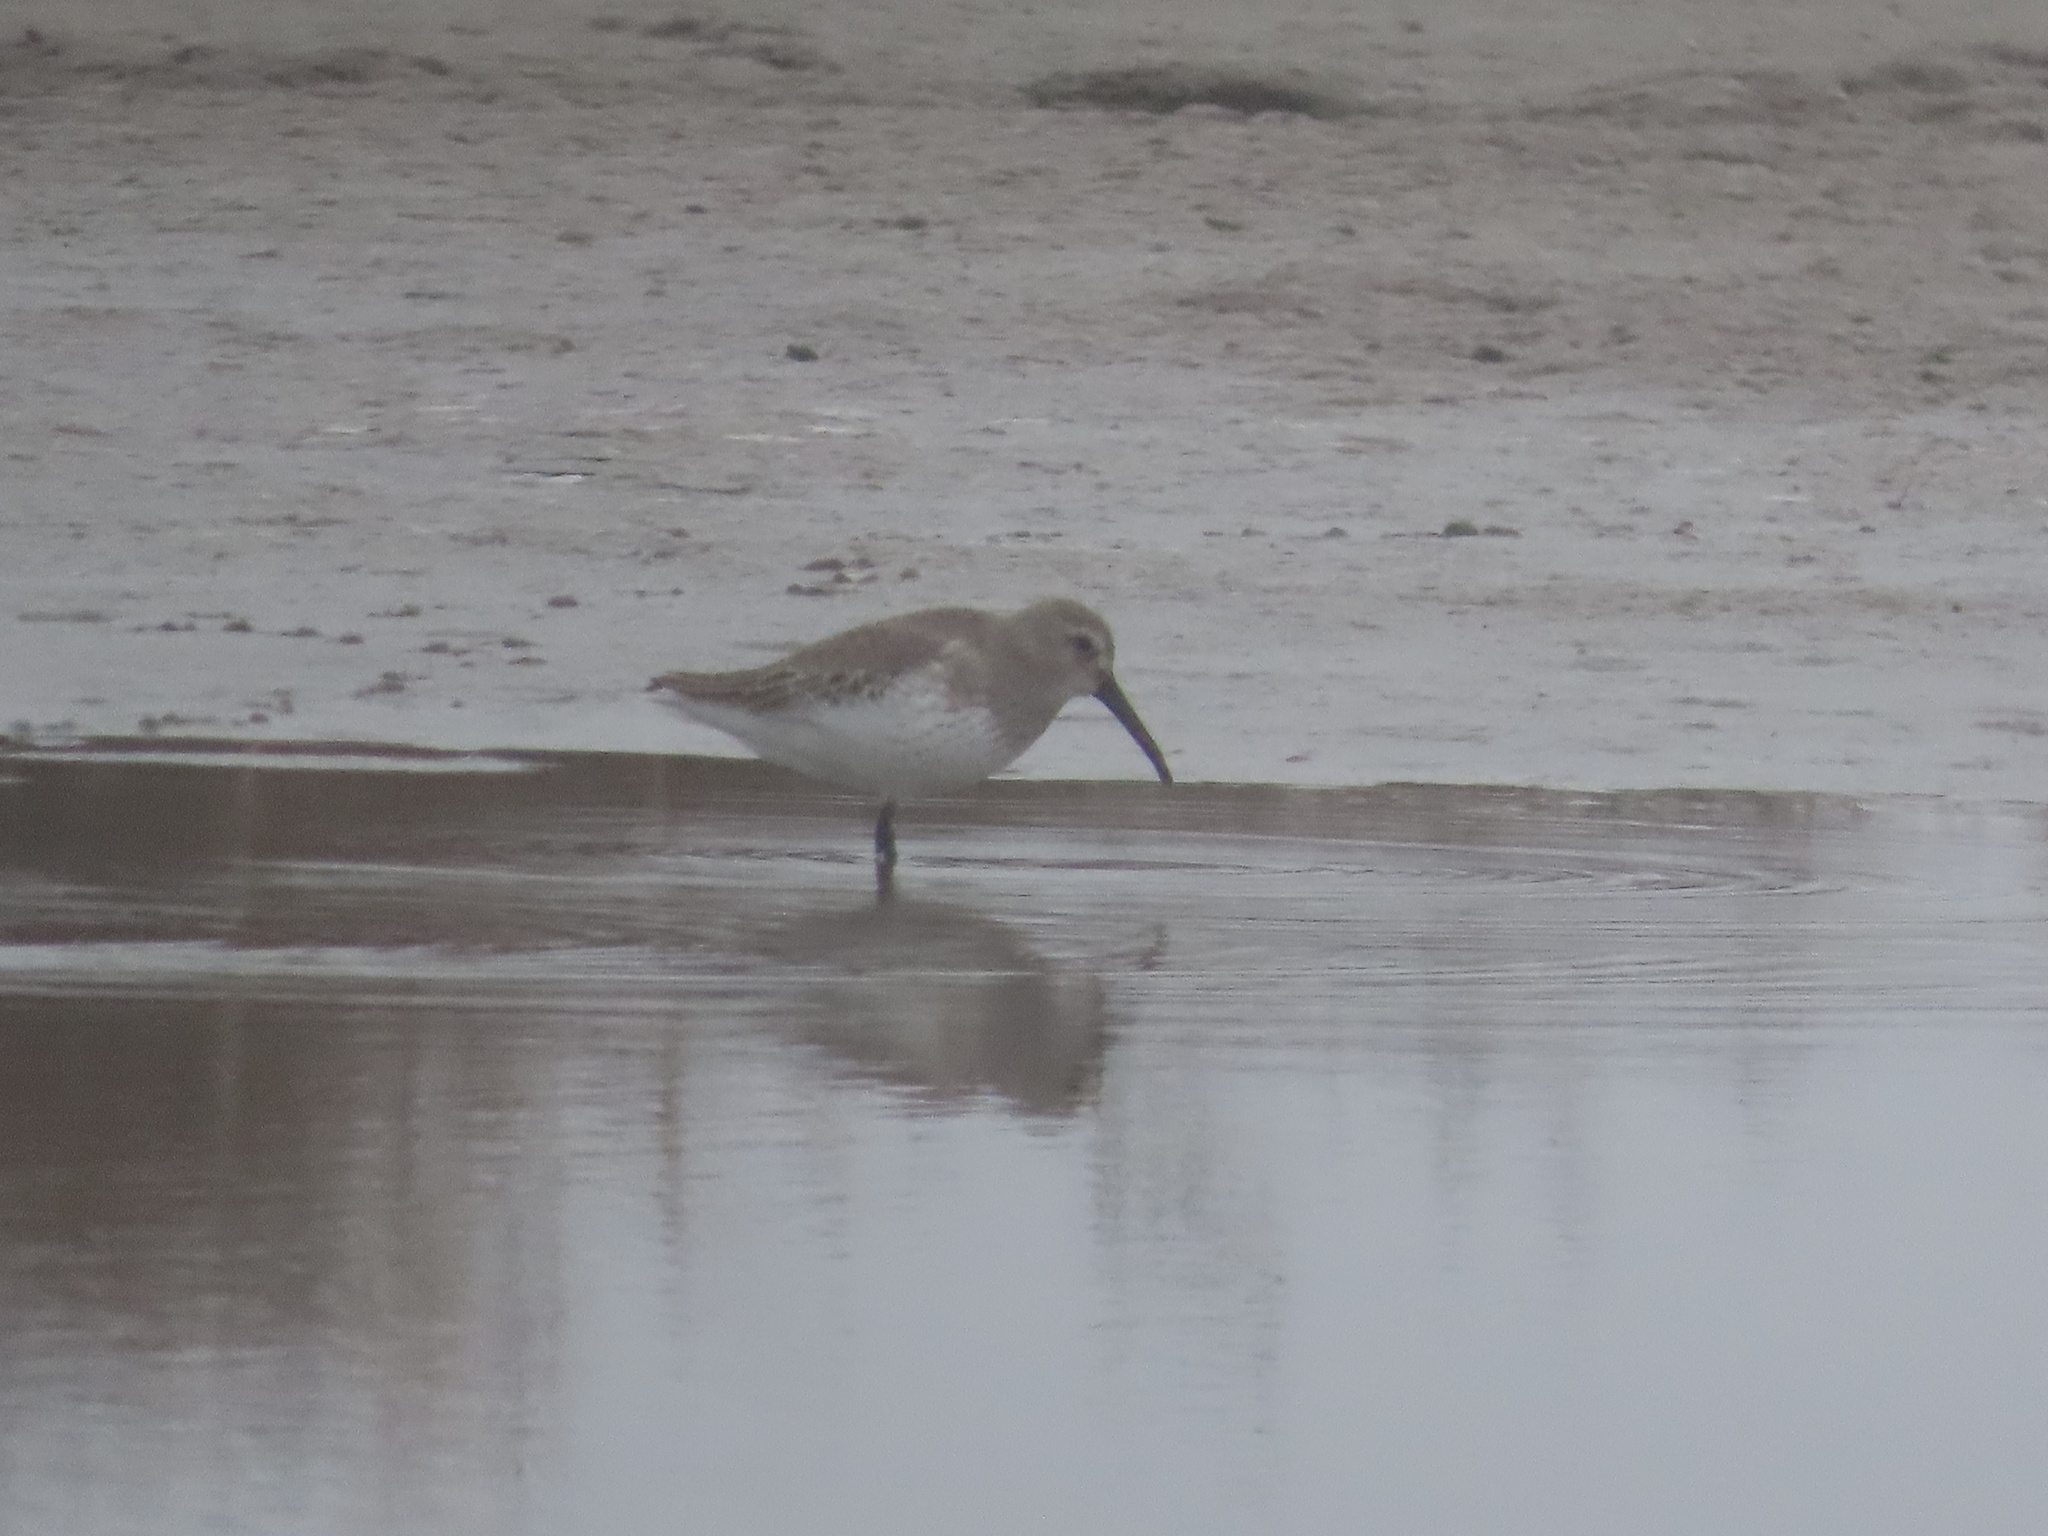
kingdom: Animalia
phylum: Chordata
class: Aves
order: Charadriiformes
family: Scolopacidae
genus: Calidris
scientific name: Calidris alpina
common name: Dunlin
